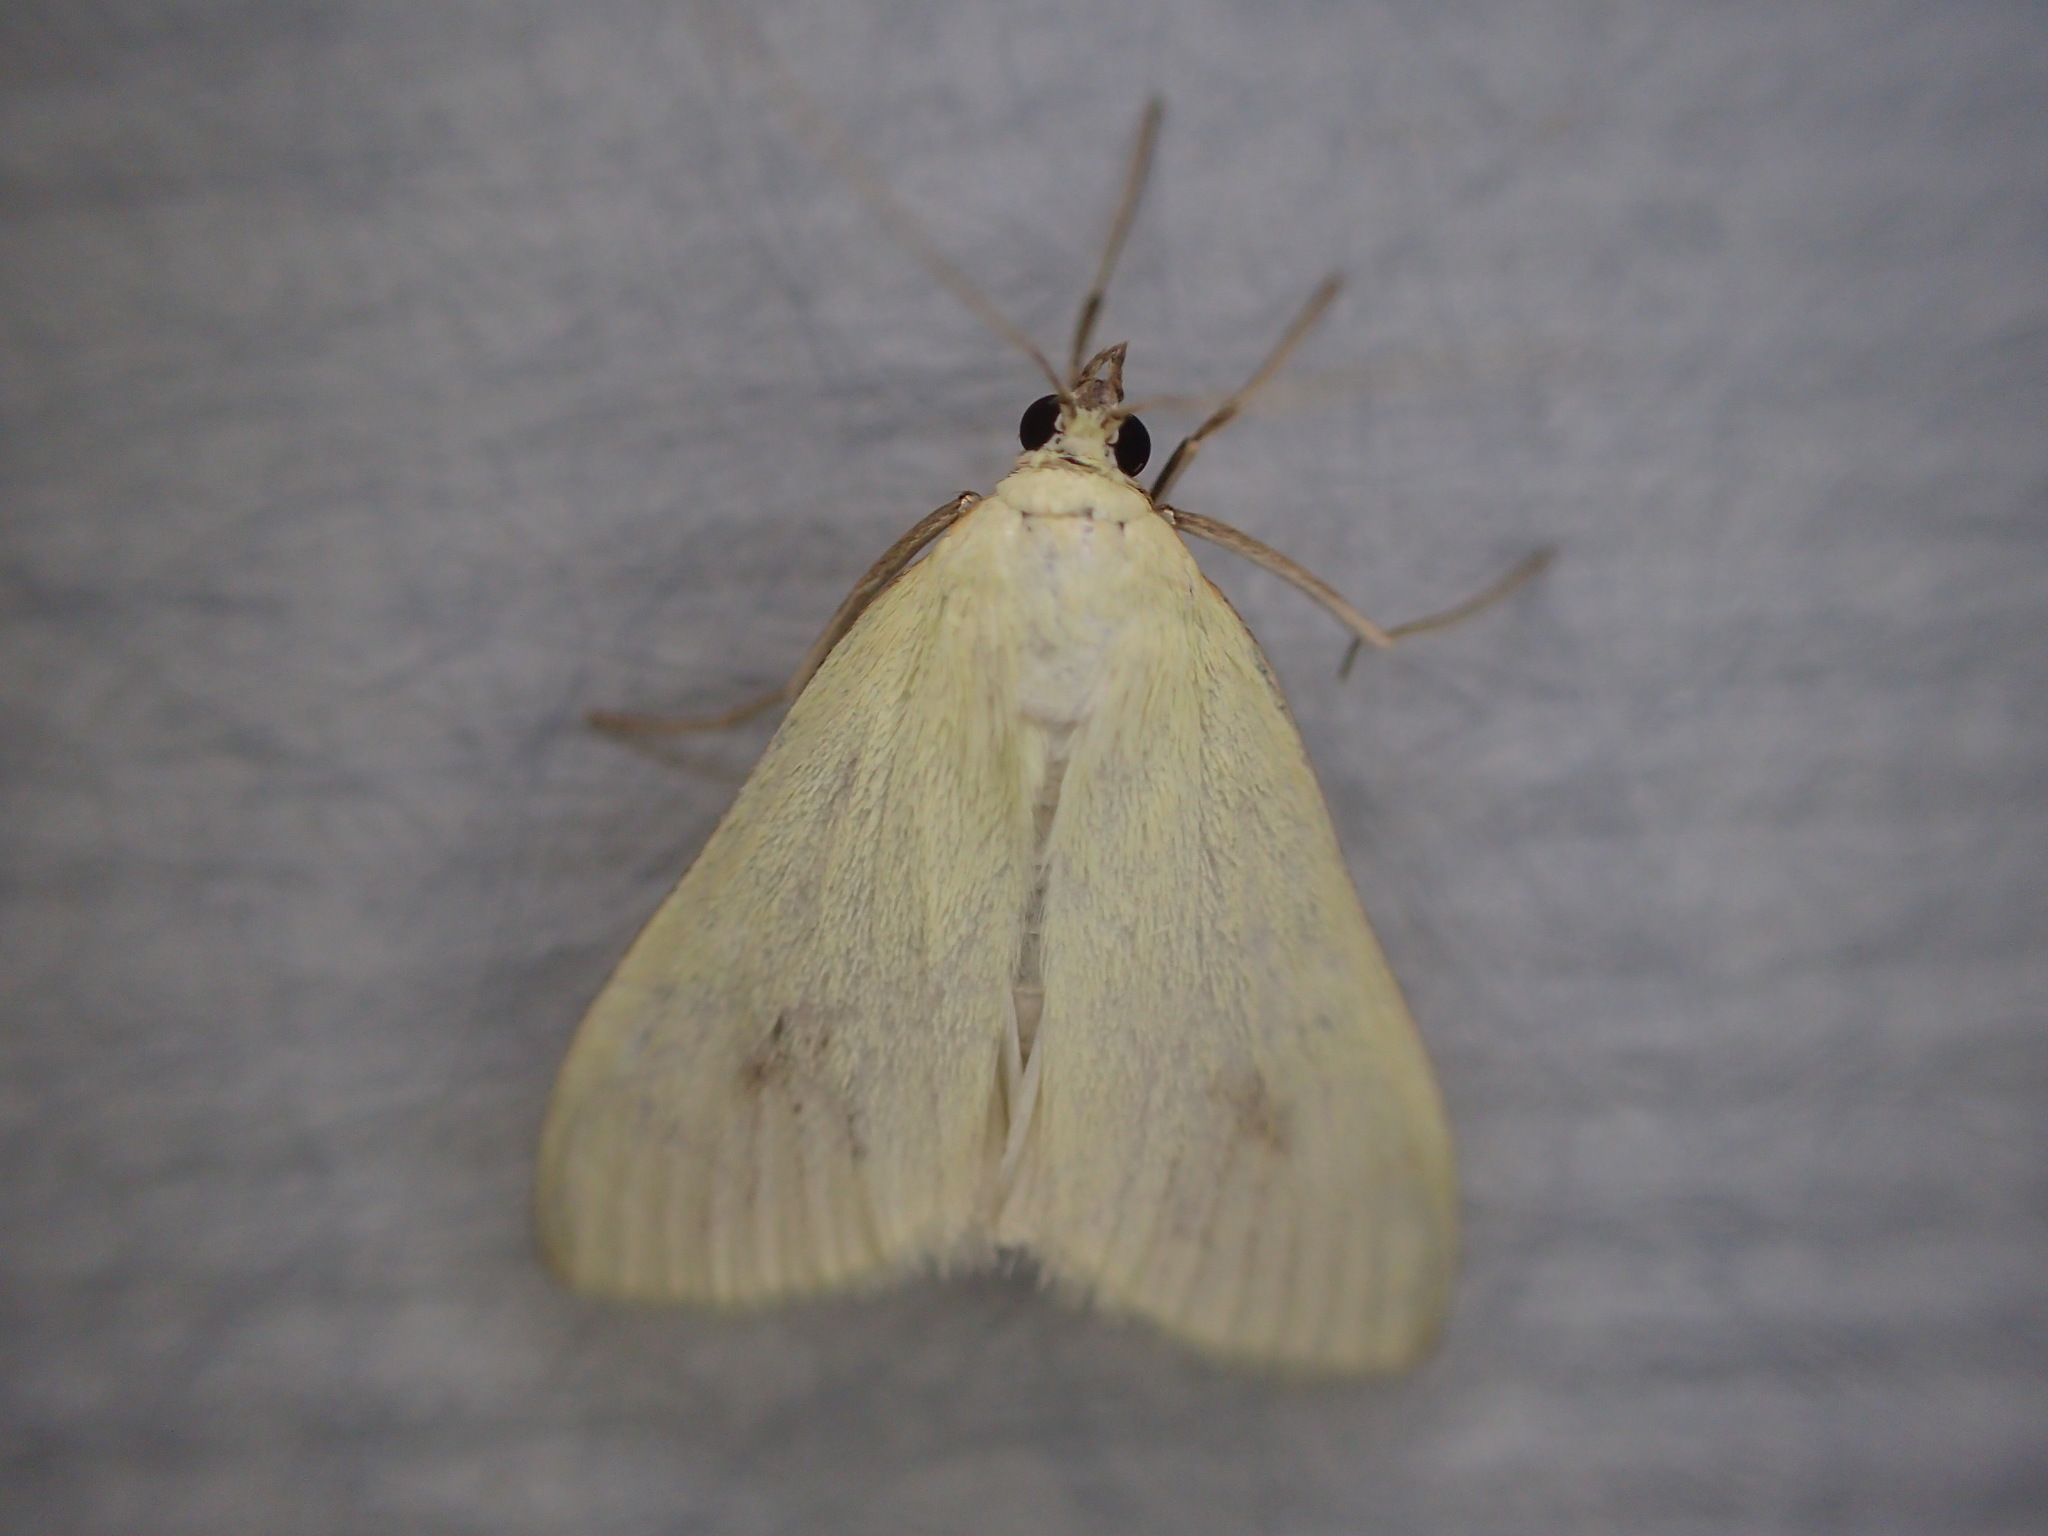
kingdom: Animalia
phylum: Arthropoda
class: Insecta
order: Lepidoptera
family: Crambidae
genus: Sitochroa
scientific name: Sitochroa palealis
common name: Greenish-yellow sitochroa moth
